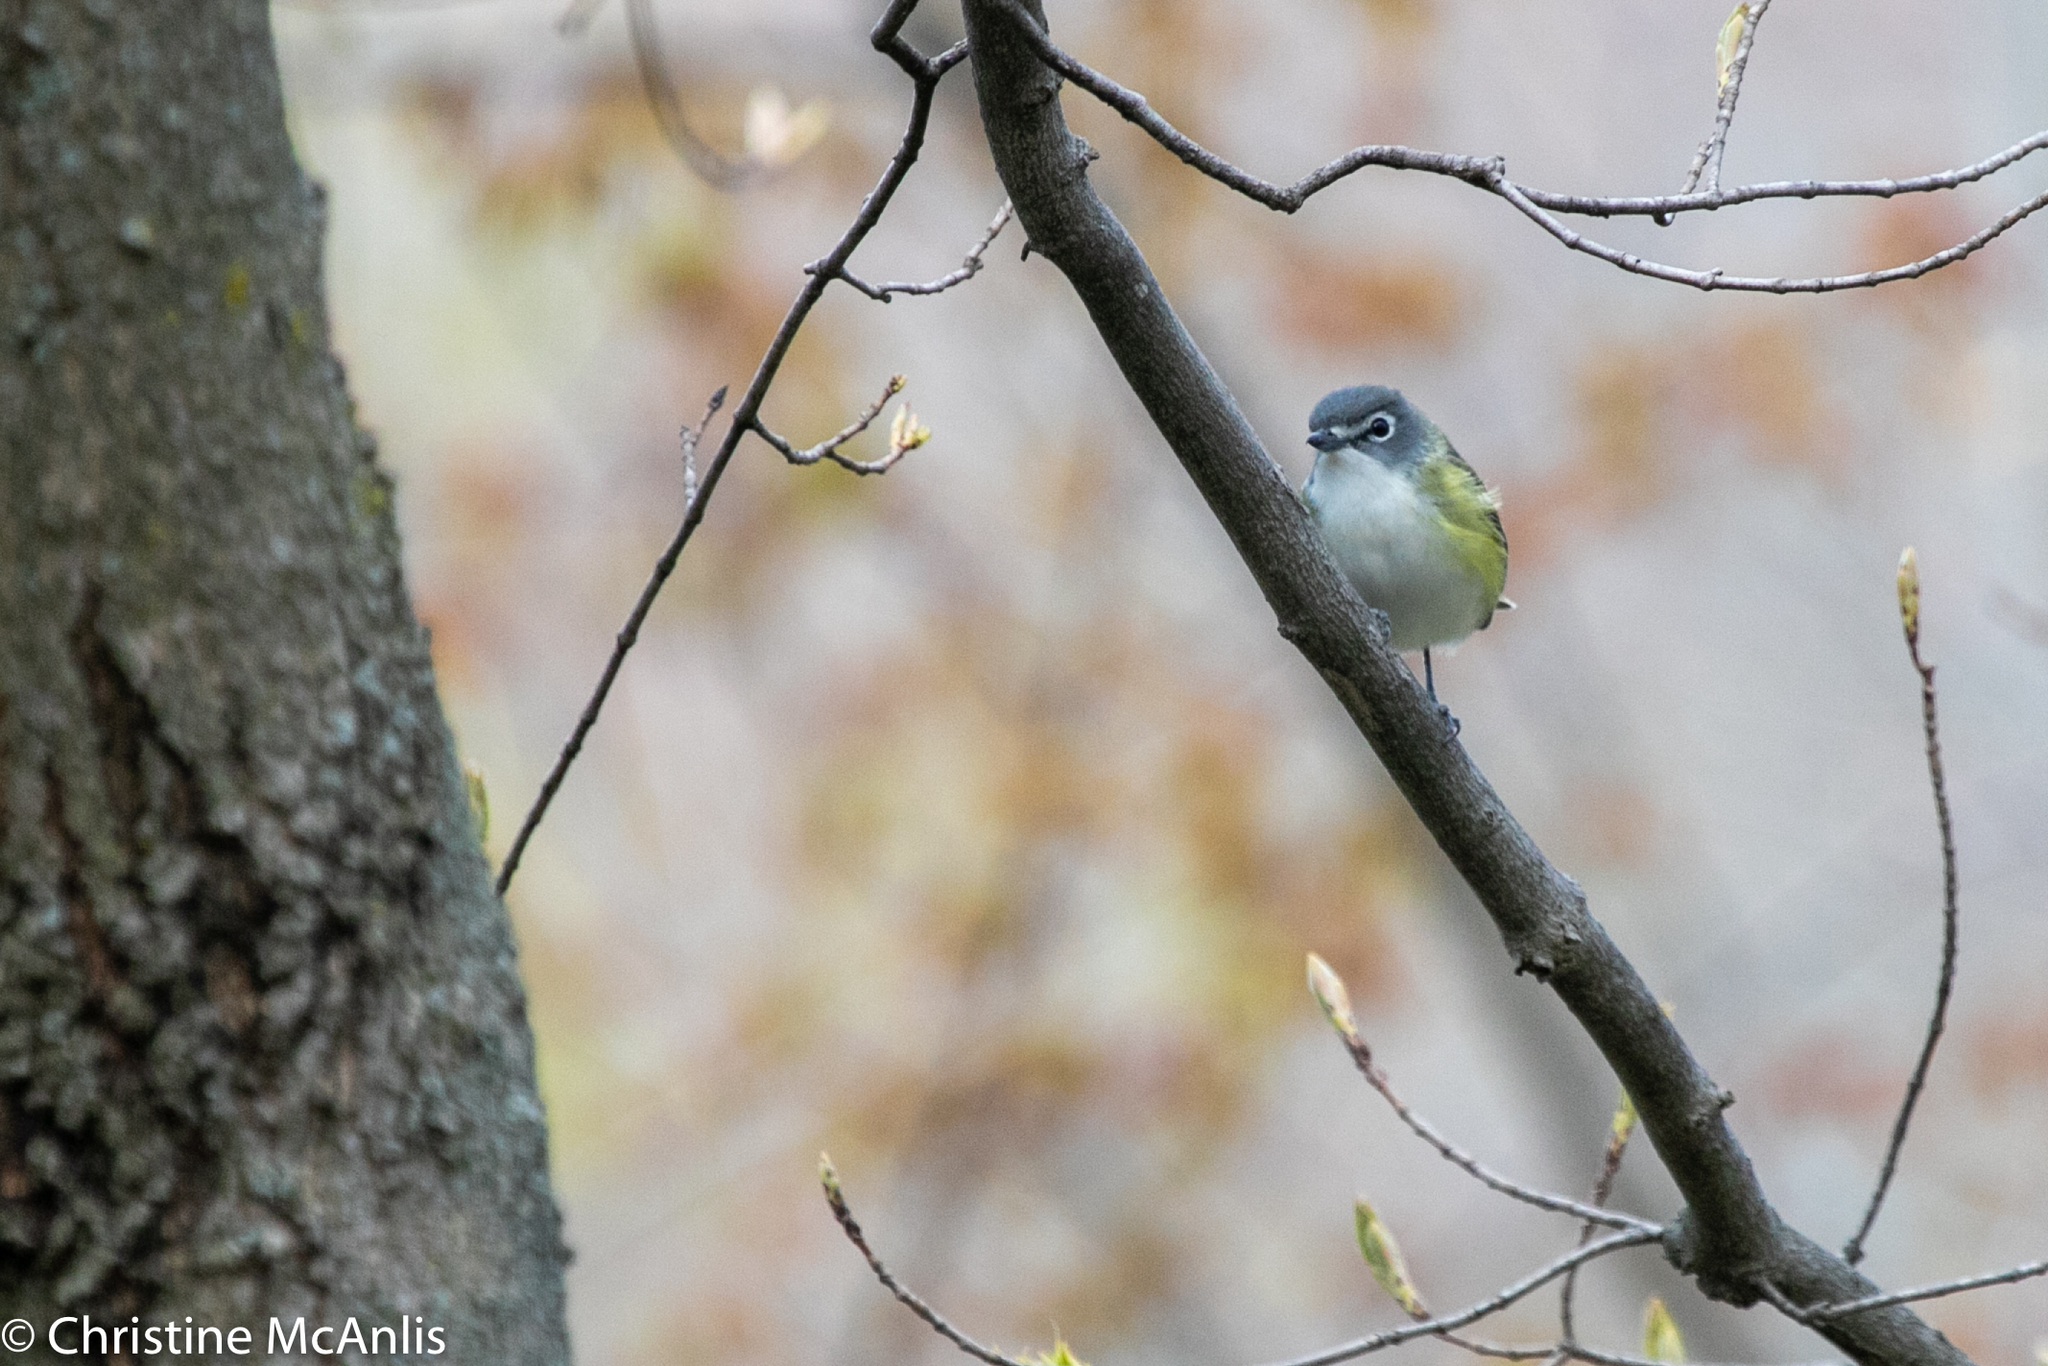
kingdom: Animalia
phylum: Chordata
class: Aves
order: Passeriformes
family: Vireonidae
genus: Vireo
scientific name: Vireo solitarius
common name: Blue-headed vireo
